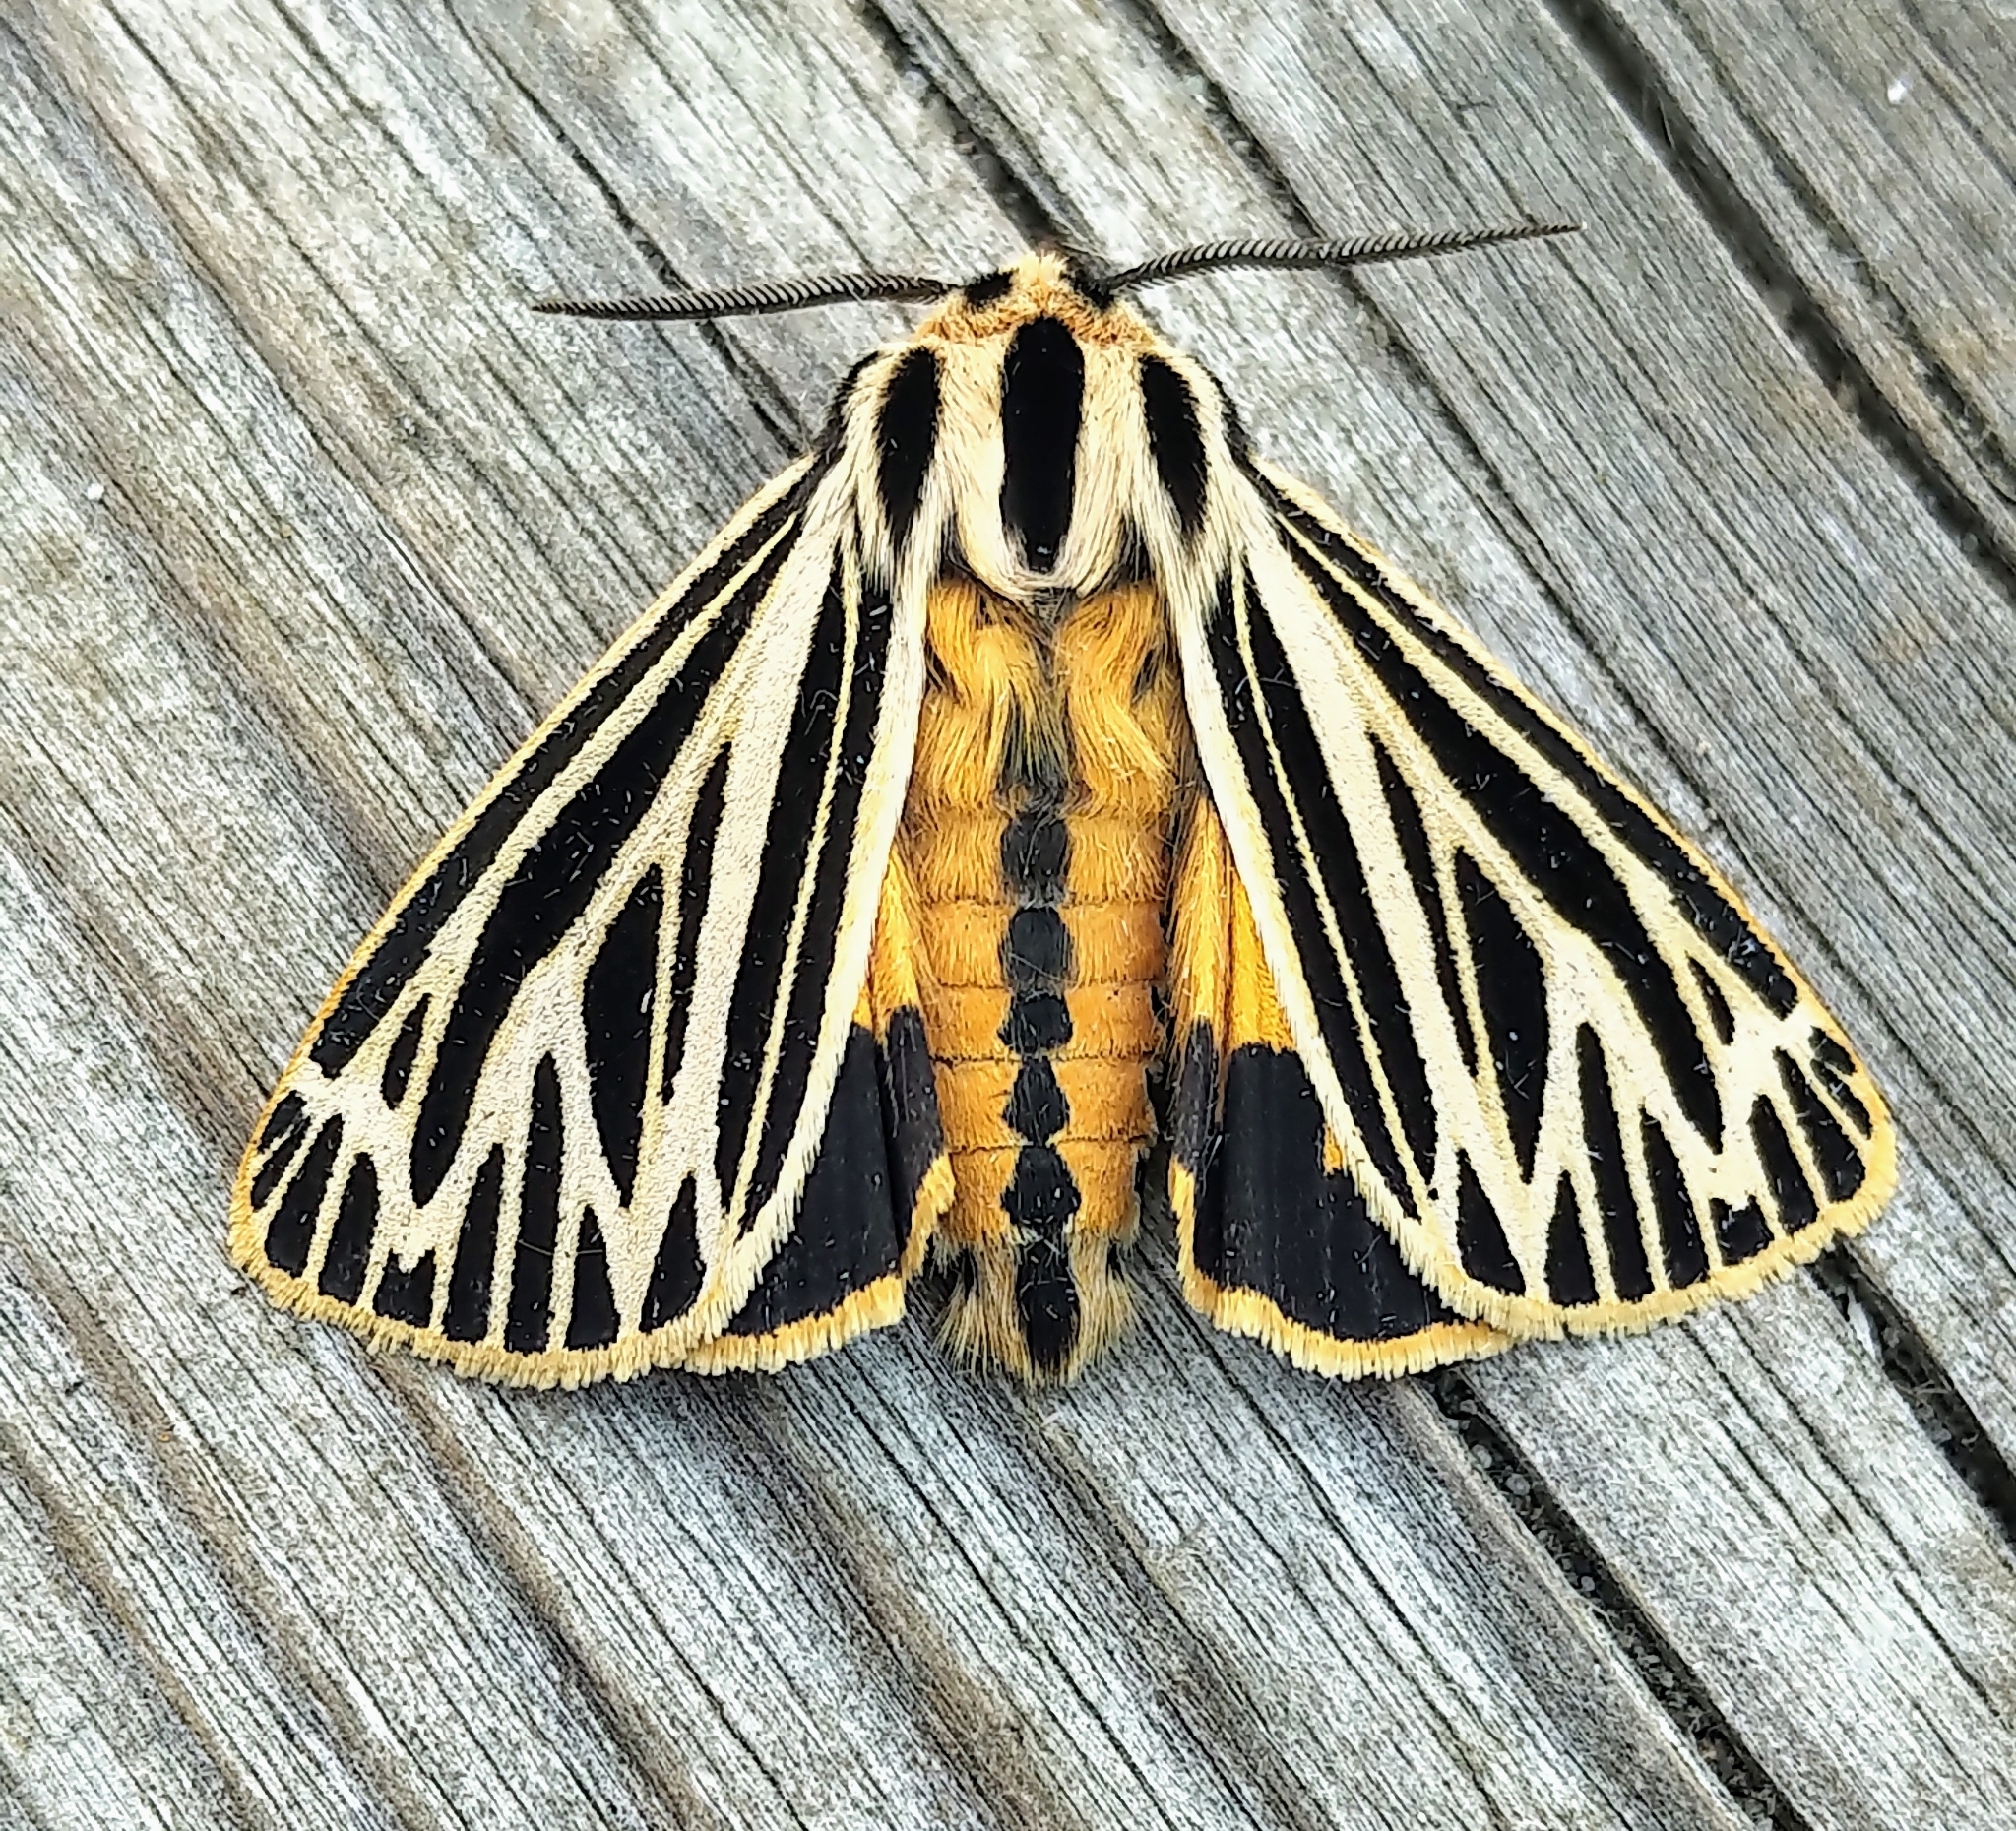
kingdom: Animalia
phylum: Arthropoda
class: Insecta
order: Lepidoptera
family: Erebidae
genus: Grammia
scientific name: Grammia virguncula
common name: Little tiger moth
